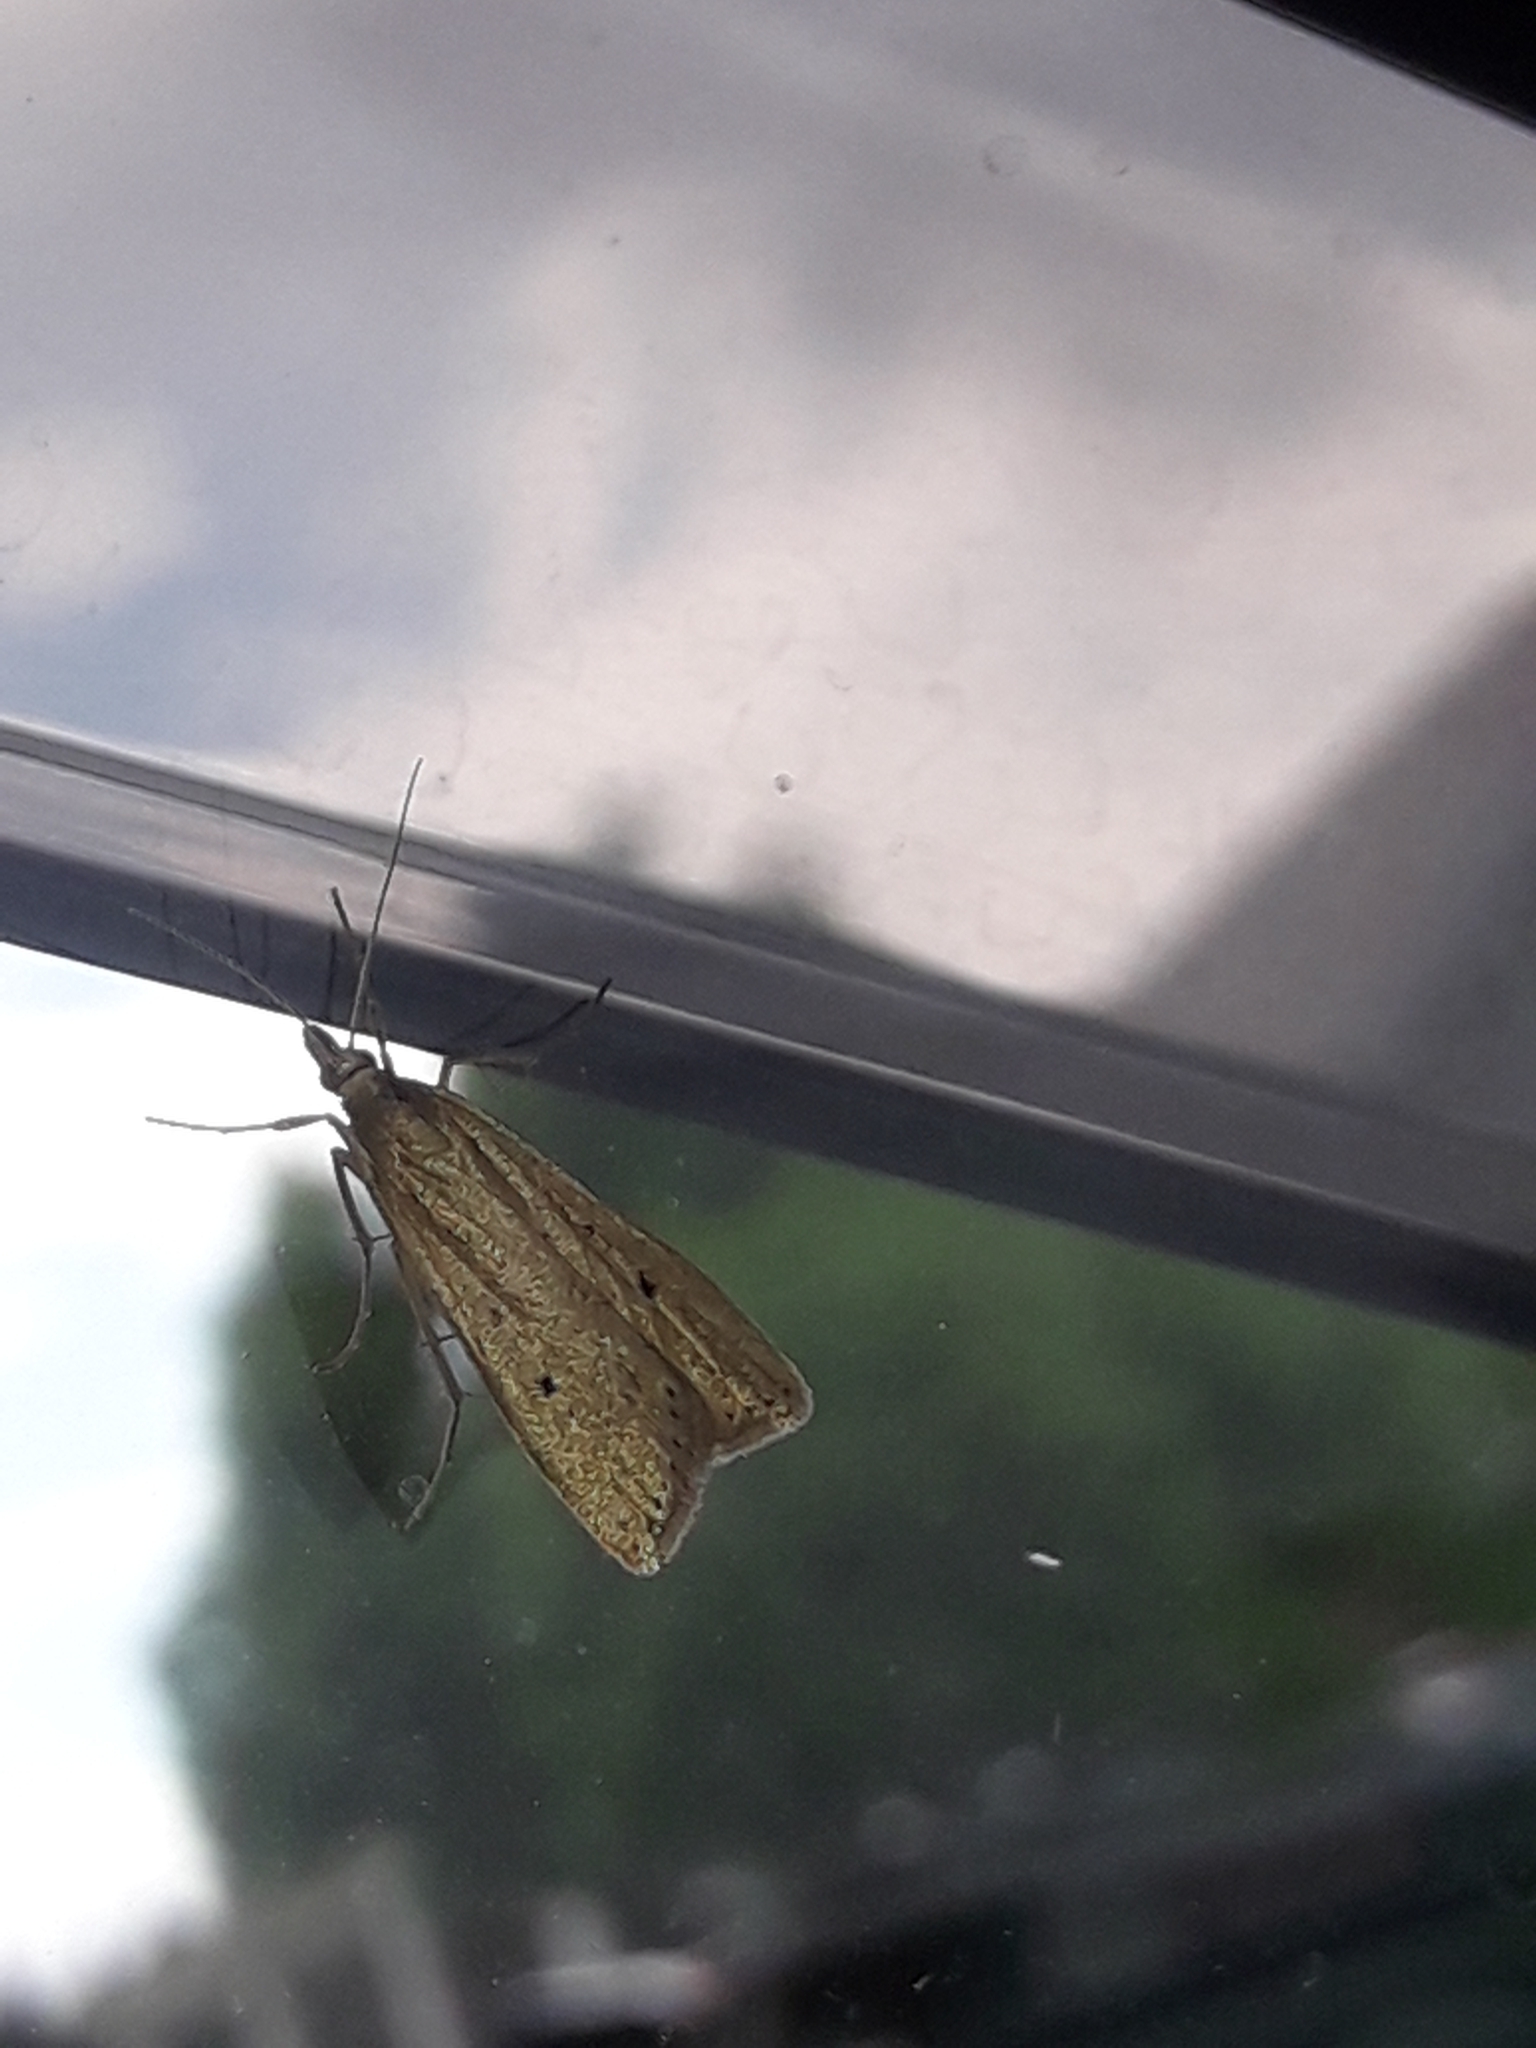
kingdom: Animalia
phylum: Arthropoda
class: Insecta
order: Lepidoptera
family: Crambidae
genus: Eudonia
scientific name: Eudonia sabulosella
